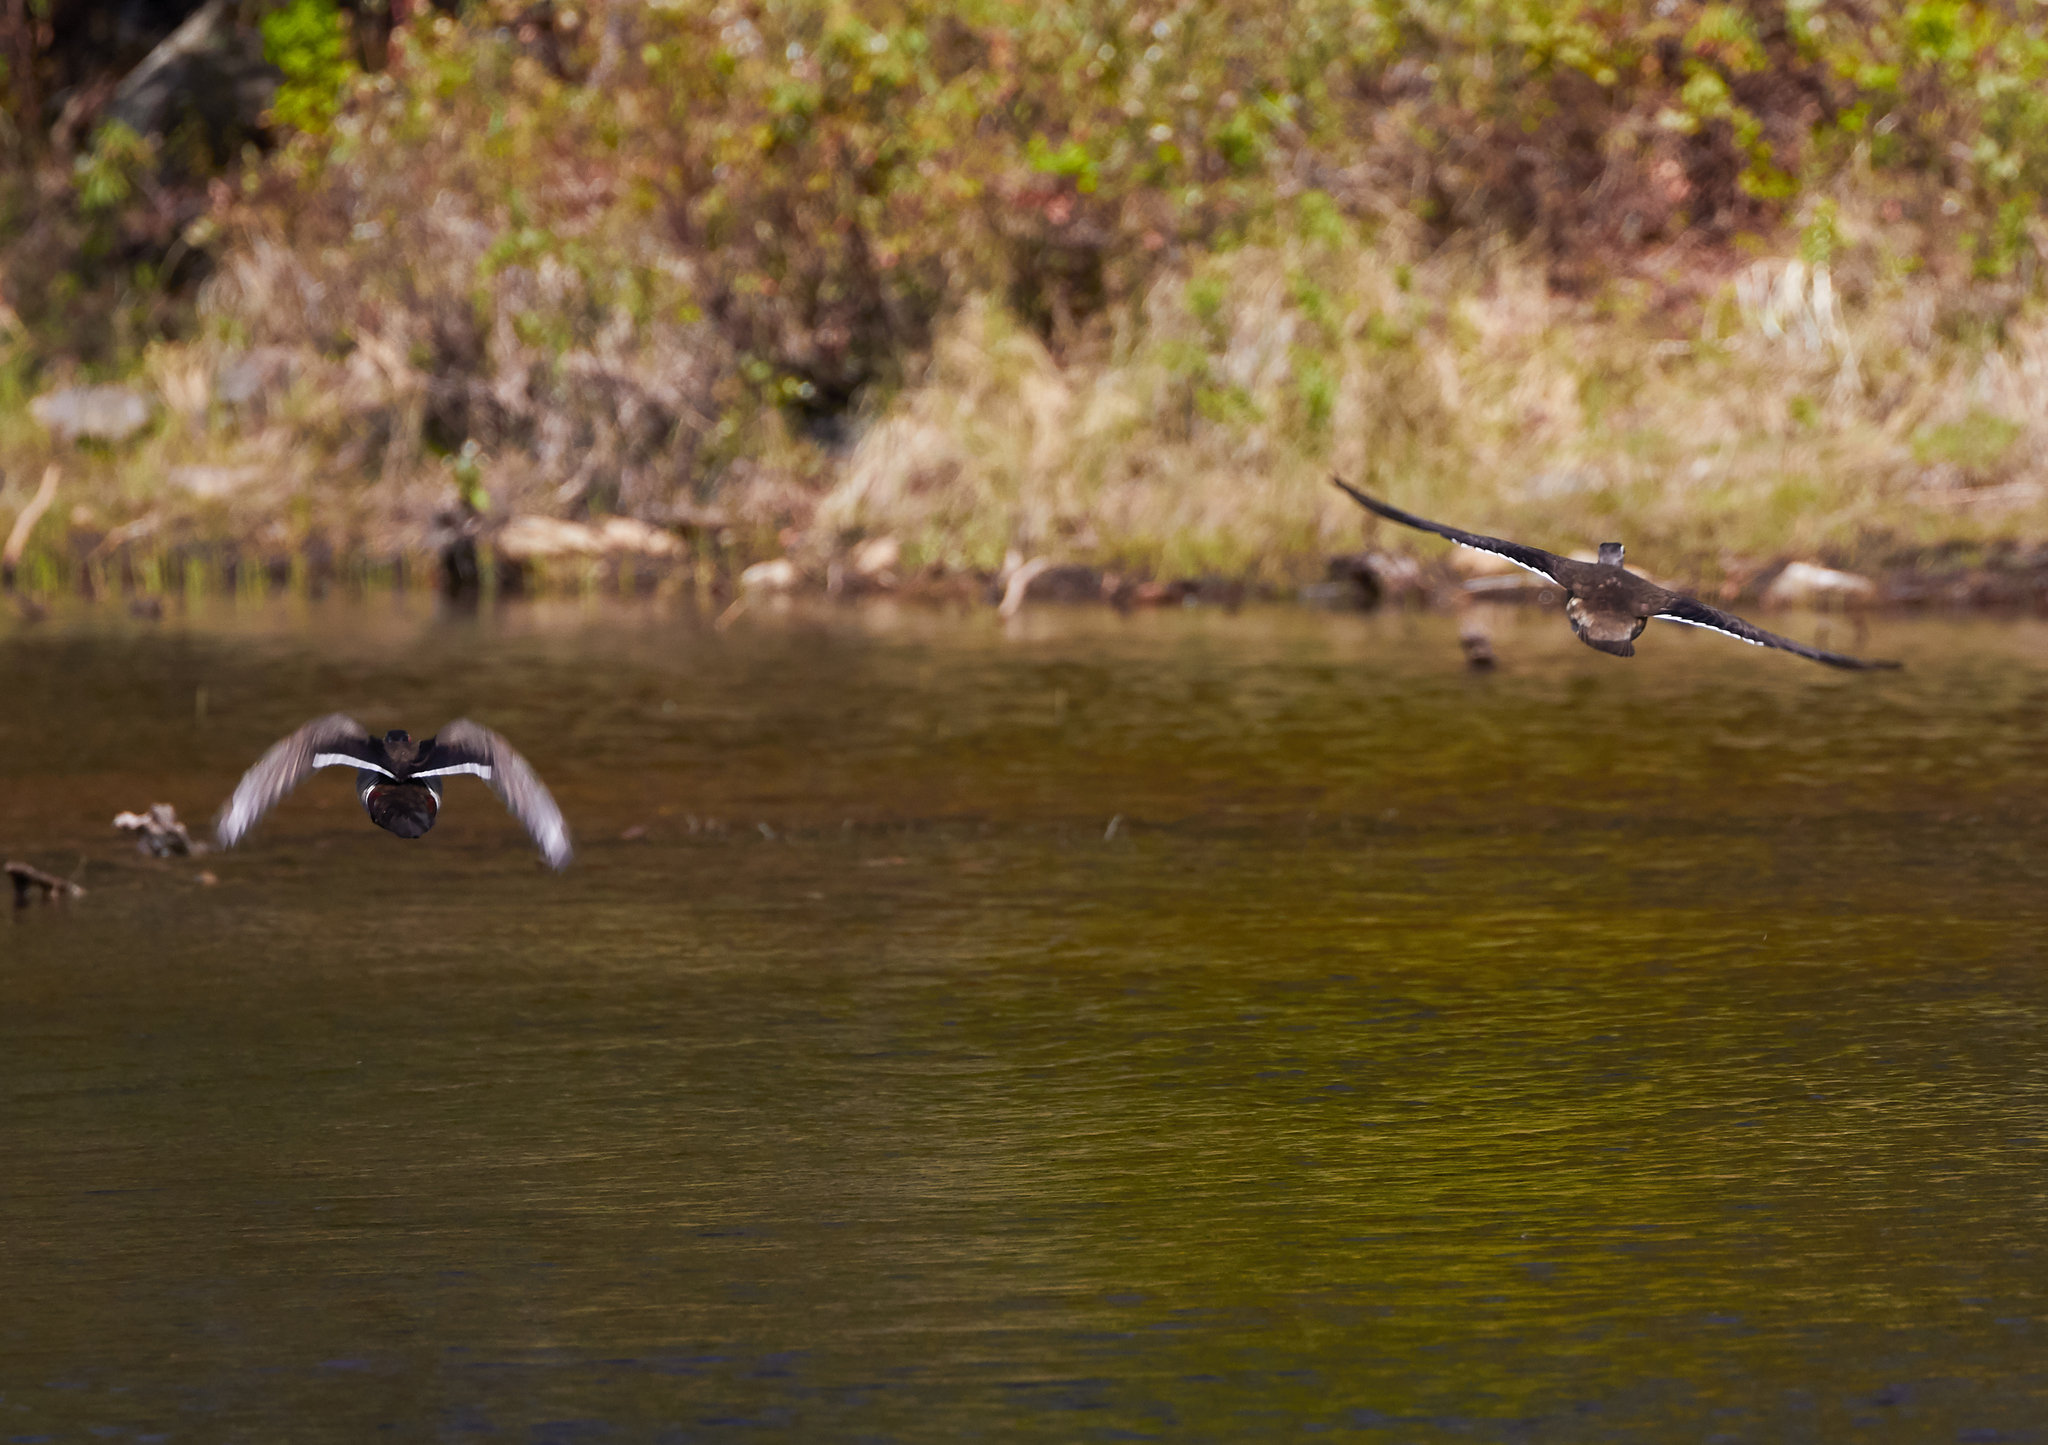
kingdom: Animalia
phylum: Chordata
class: Aves
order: Anseriformes
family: Anatidae
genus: Aix
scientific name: Aix sponsa
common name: Wood duck
